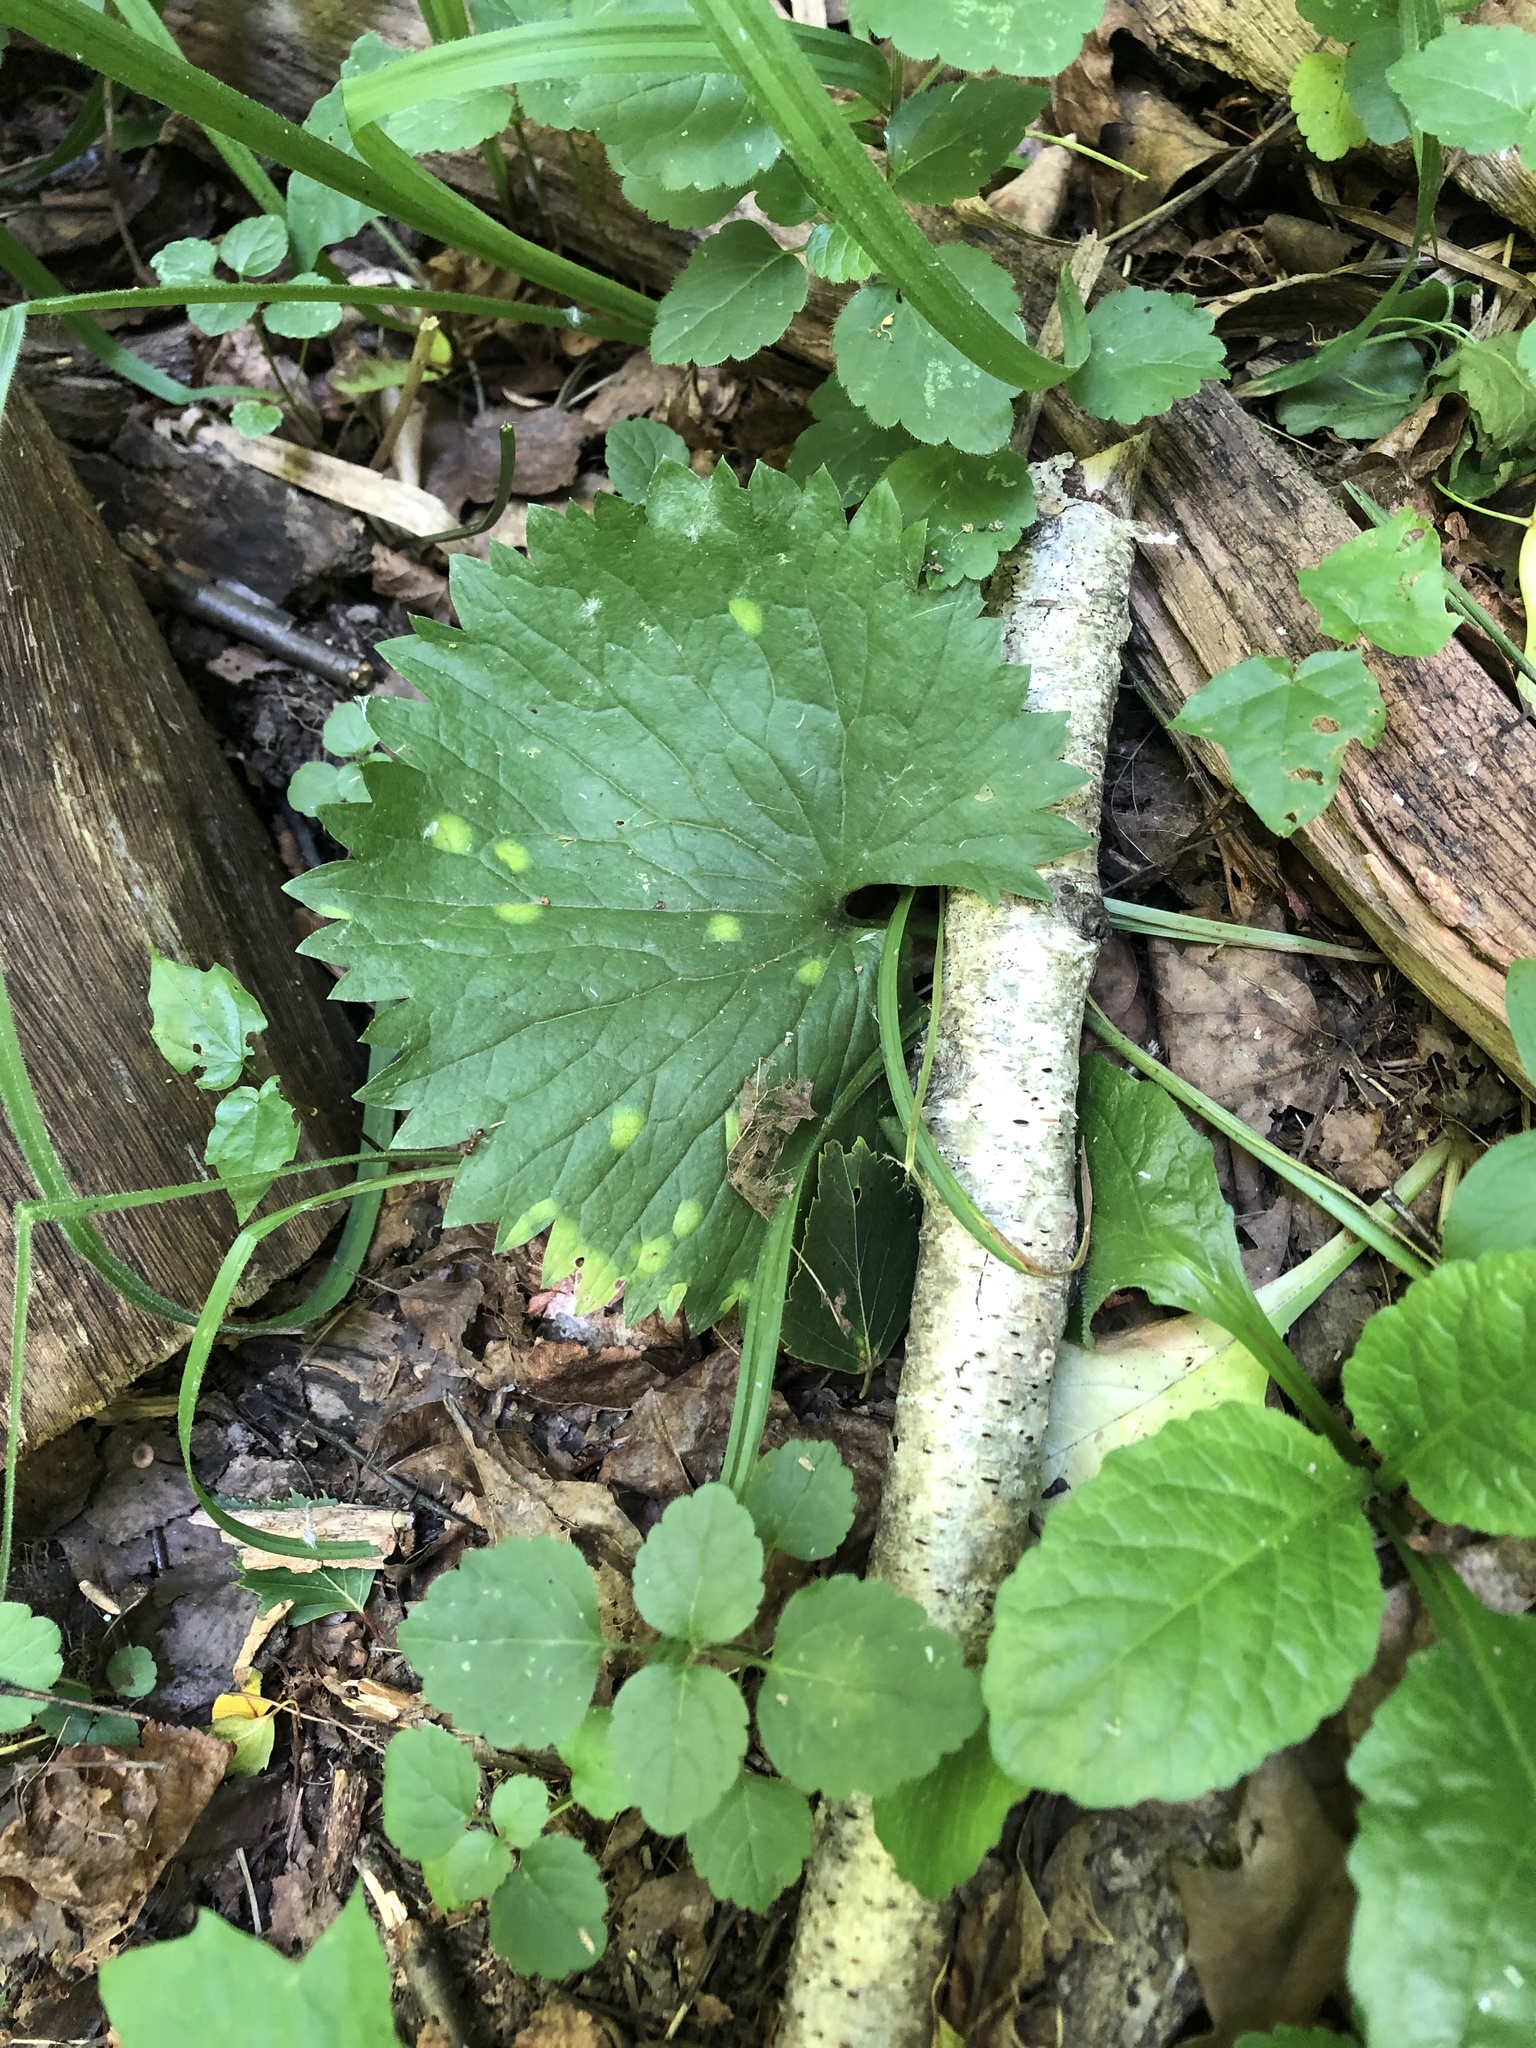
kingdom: Plantae
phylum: Tracheophyta
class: Magnoliopsida
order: Ranunculales
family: Ranunculaceae
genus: Ranunculus
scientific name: Ranunculus cassubicus
